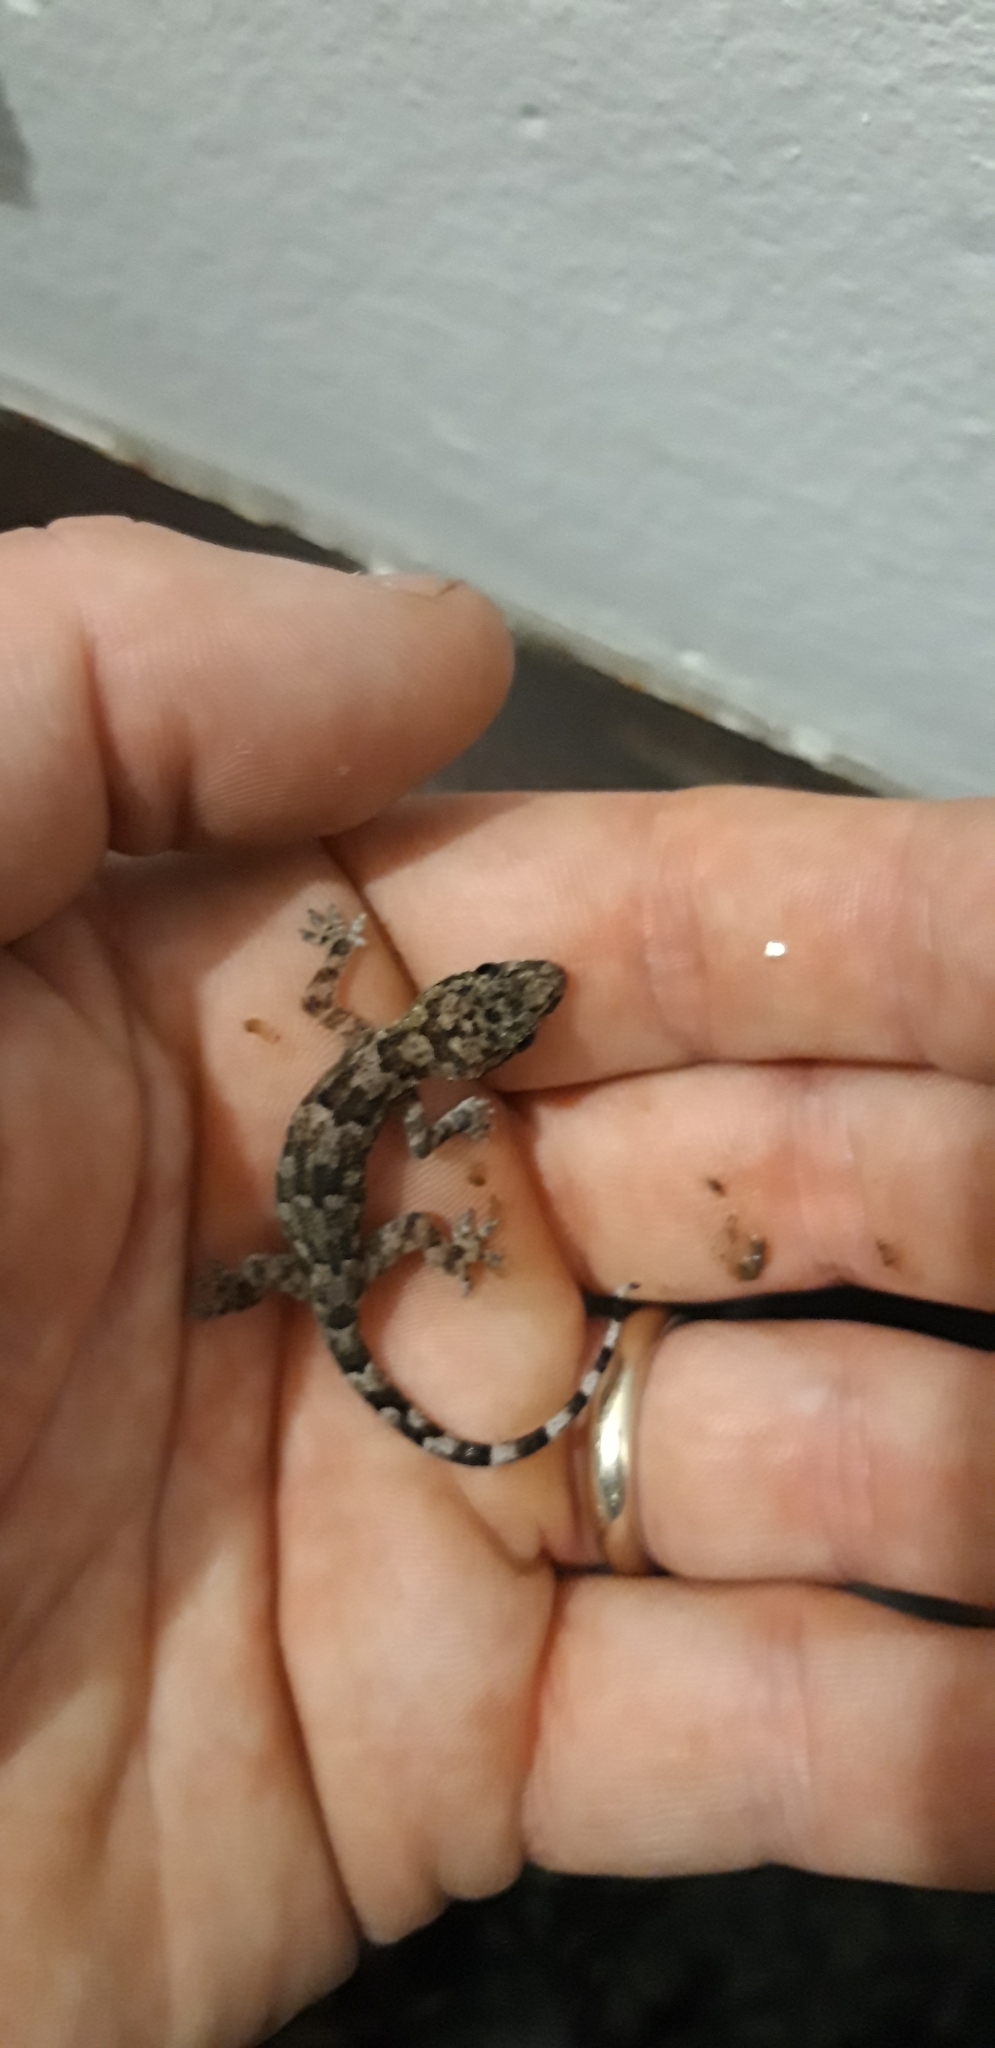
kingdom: Animalia
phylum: Chordata
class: Squamata
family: Gekkonidae
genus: Hemidactylus
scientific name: Hemidactylus mabouia
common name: House gecko
